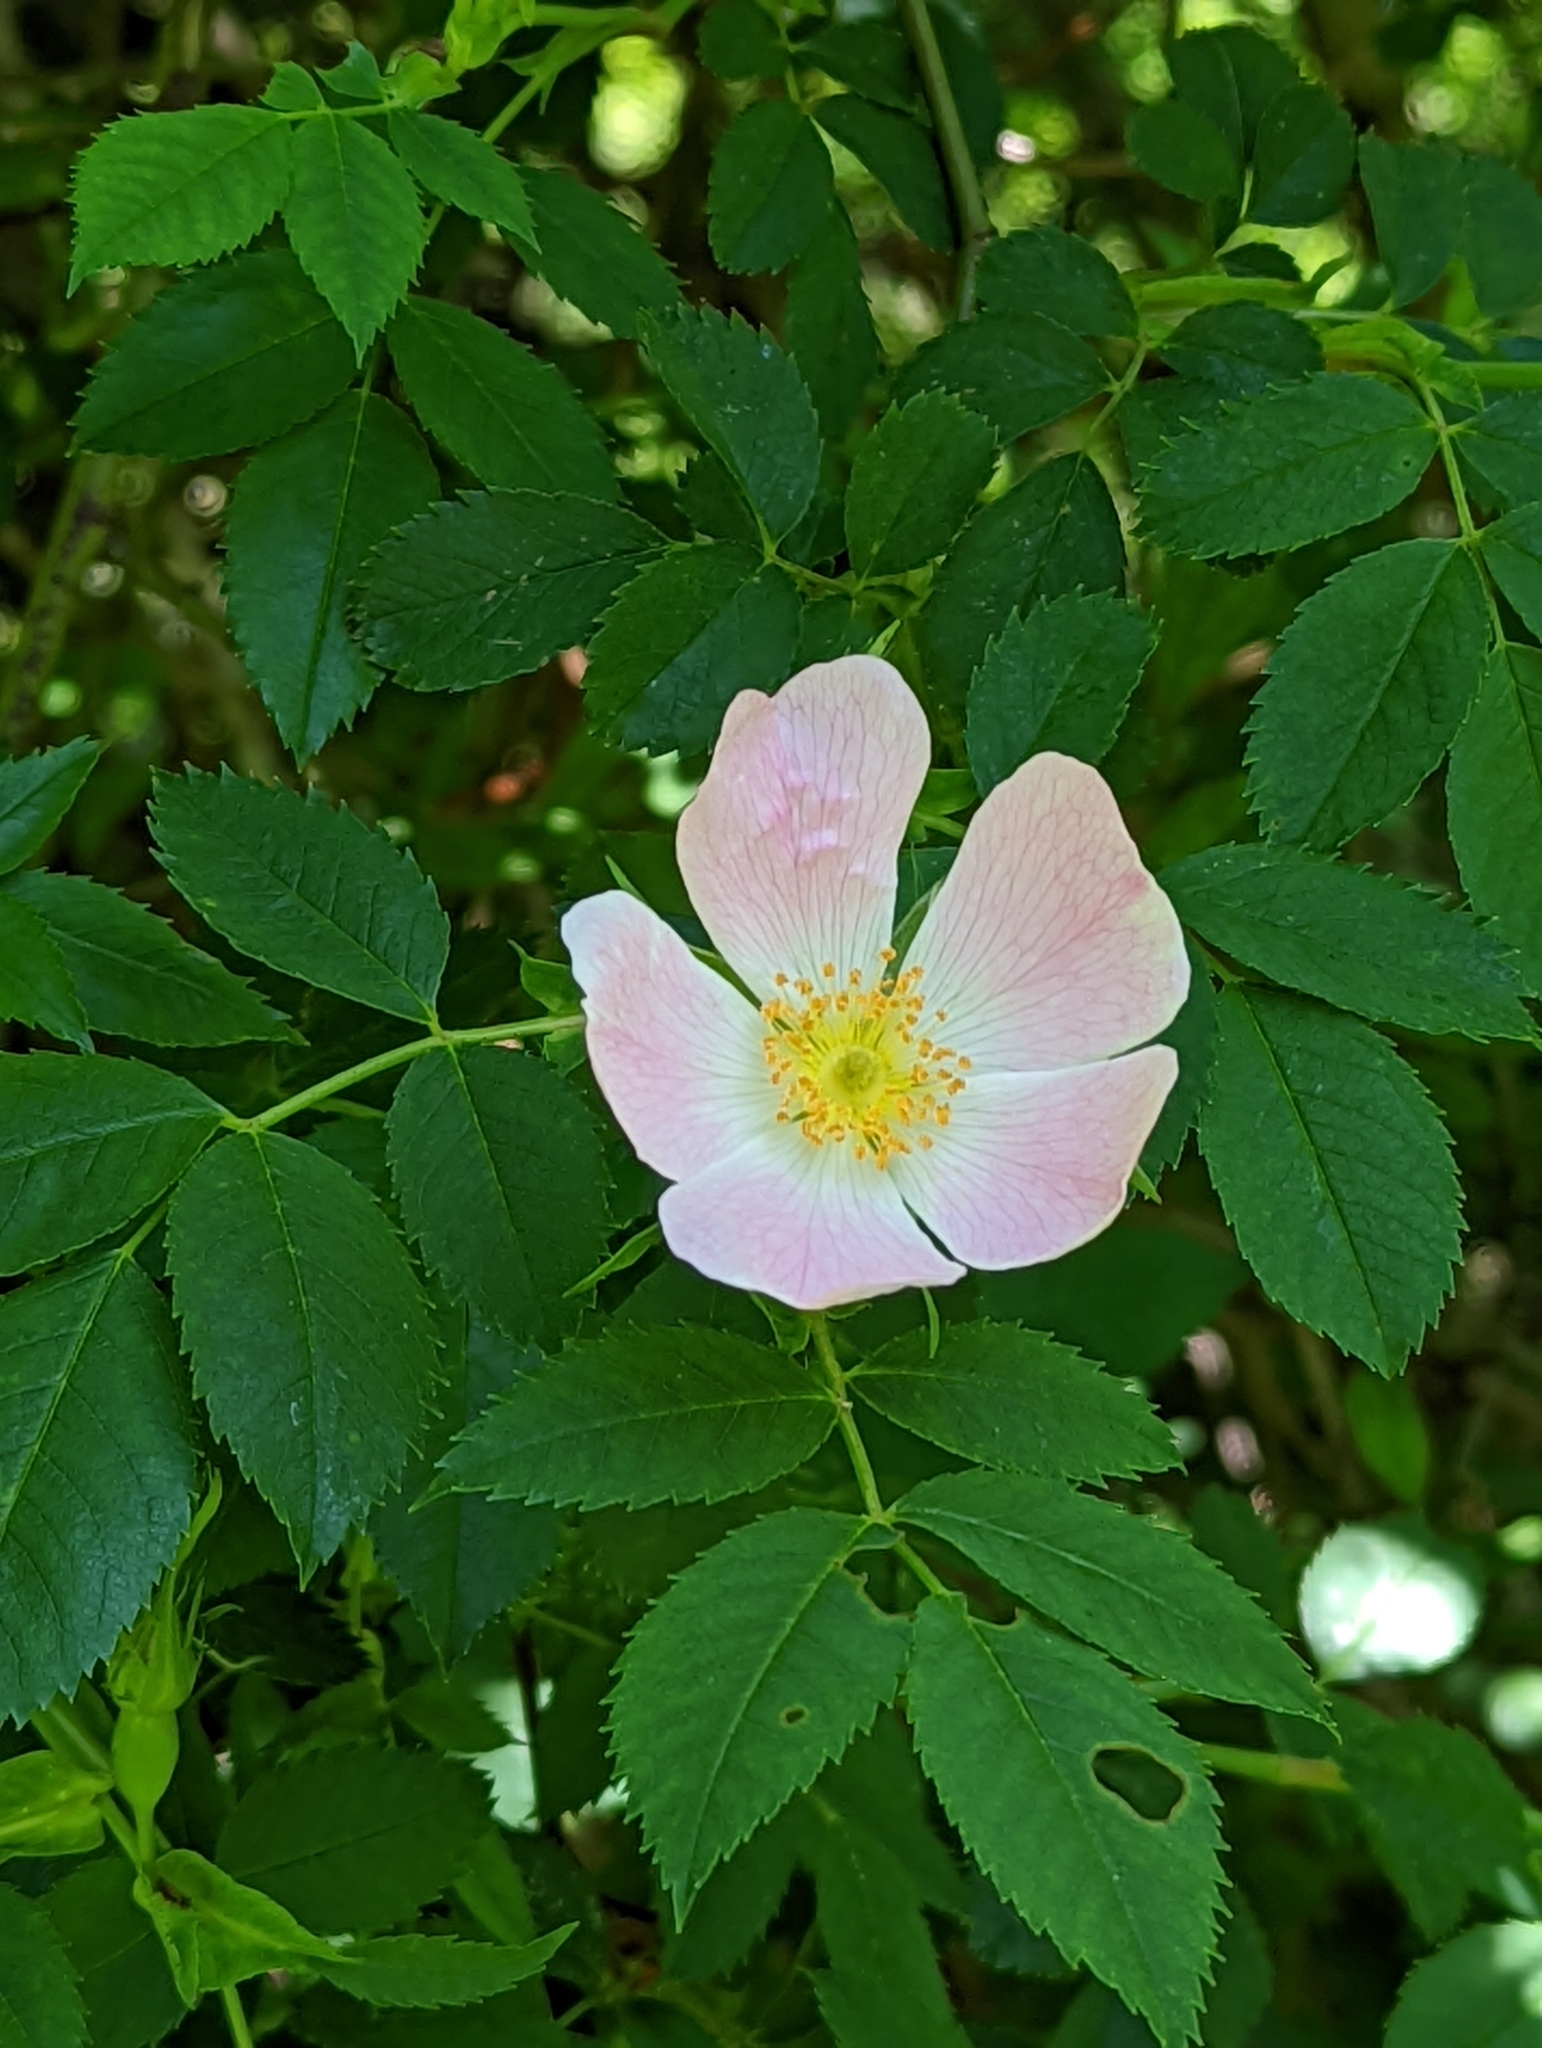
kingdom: Plantae
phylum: Tracheophyta
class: Magnoliopsida
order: Rosales
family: Rosaceae
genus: Rosa
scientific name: Rosa canina
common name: Dog rose
